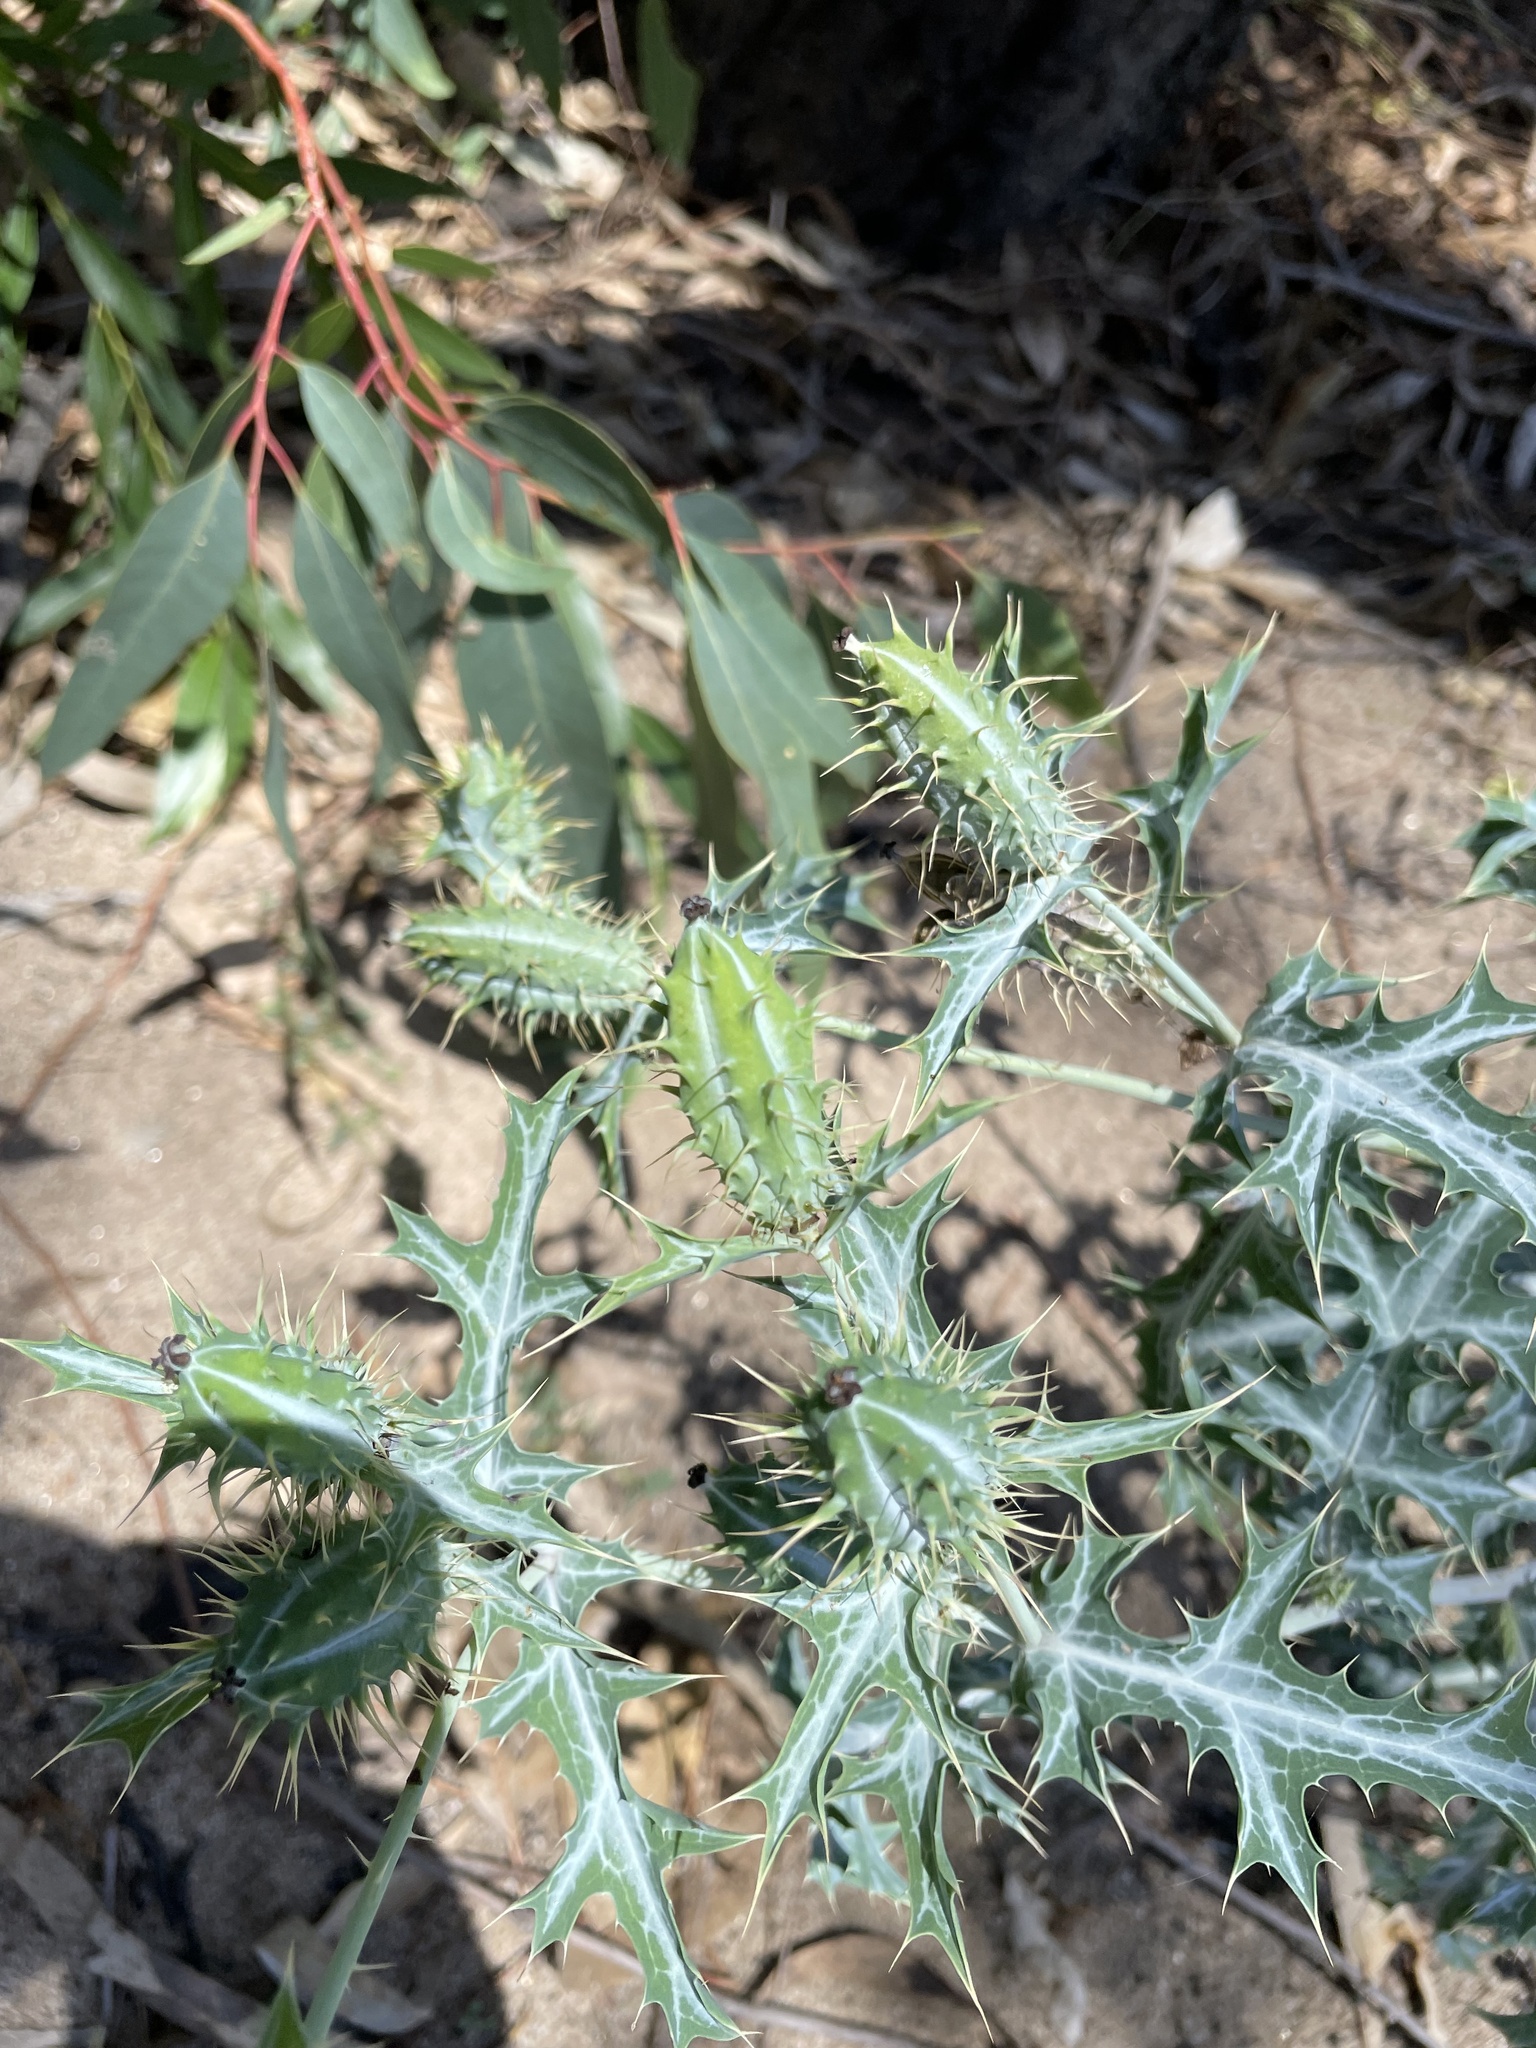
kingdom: Plantae
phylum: Tracheophyta
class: Magnoliopsida
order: Ranunculales
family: Papaveraceae
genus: Argemone
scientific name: Argemone ochroleuca
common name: White-flower mexican-poppy
